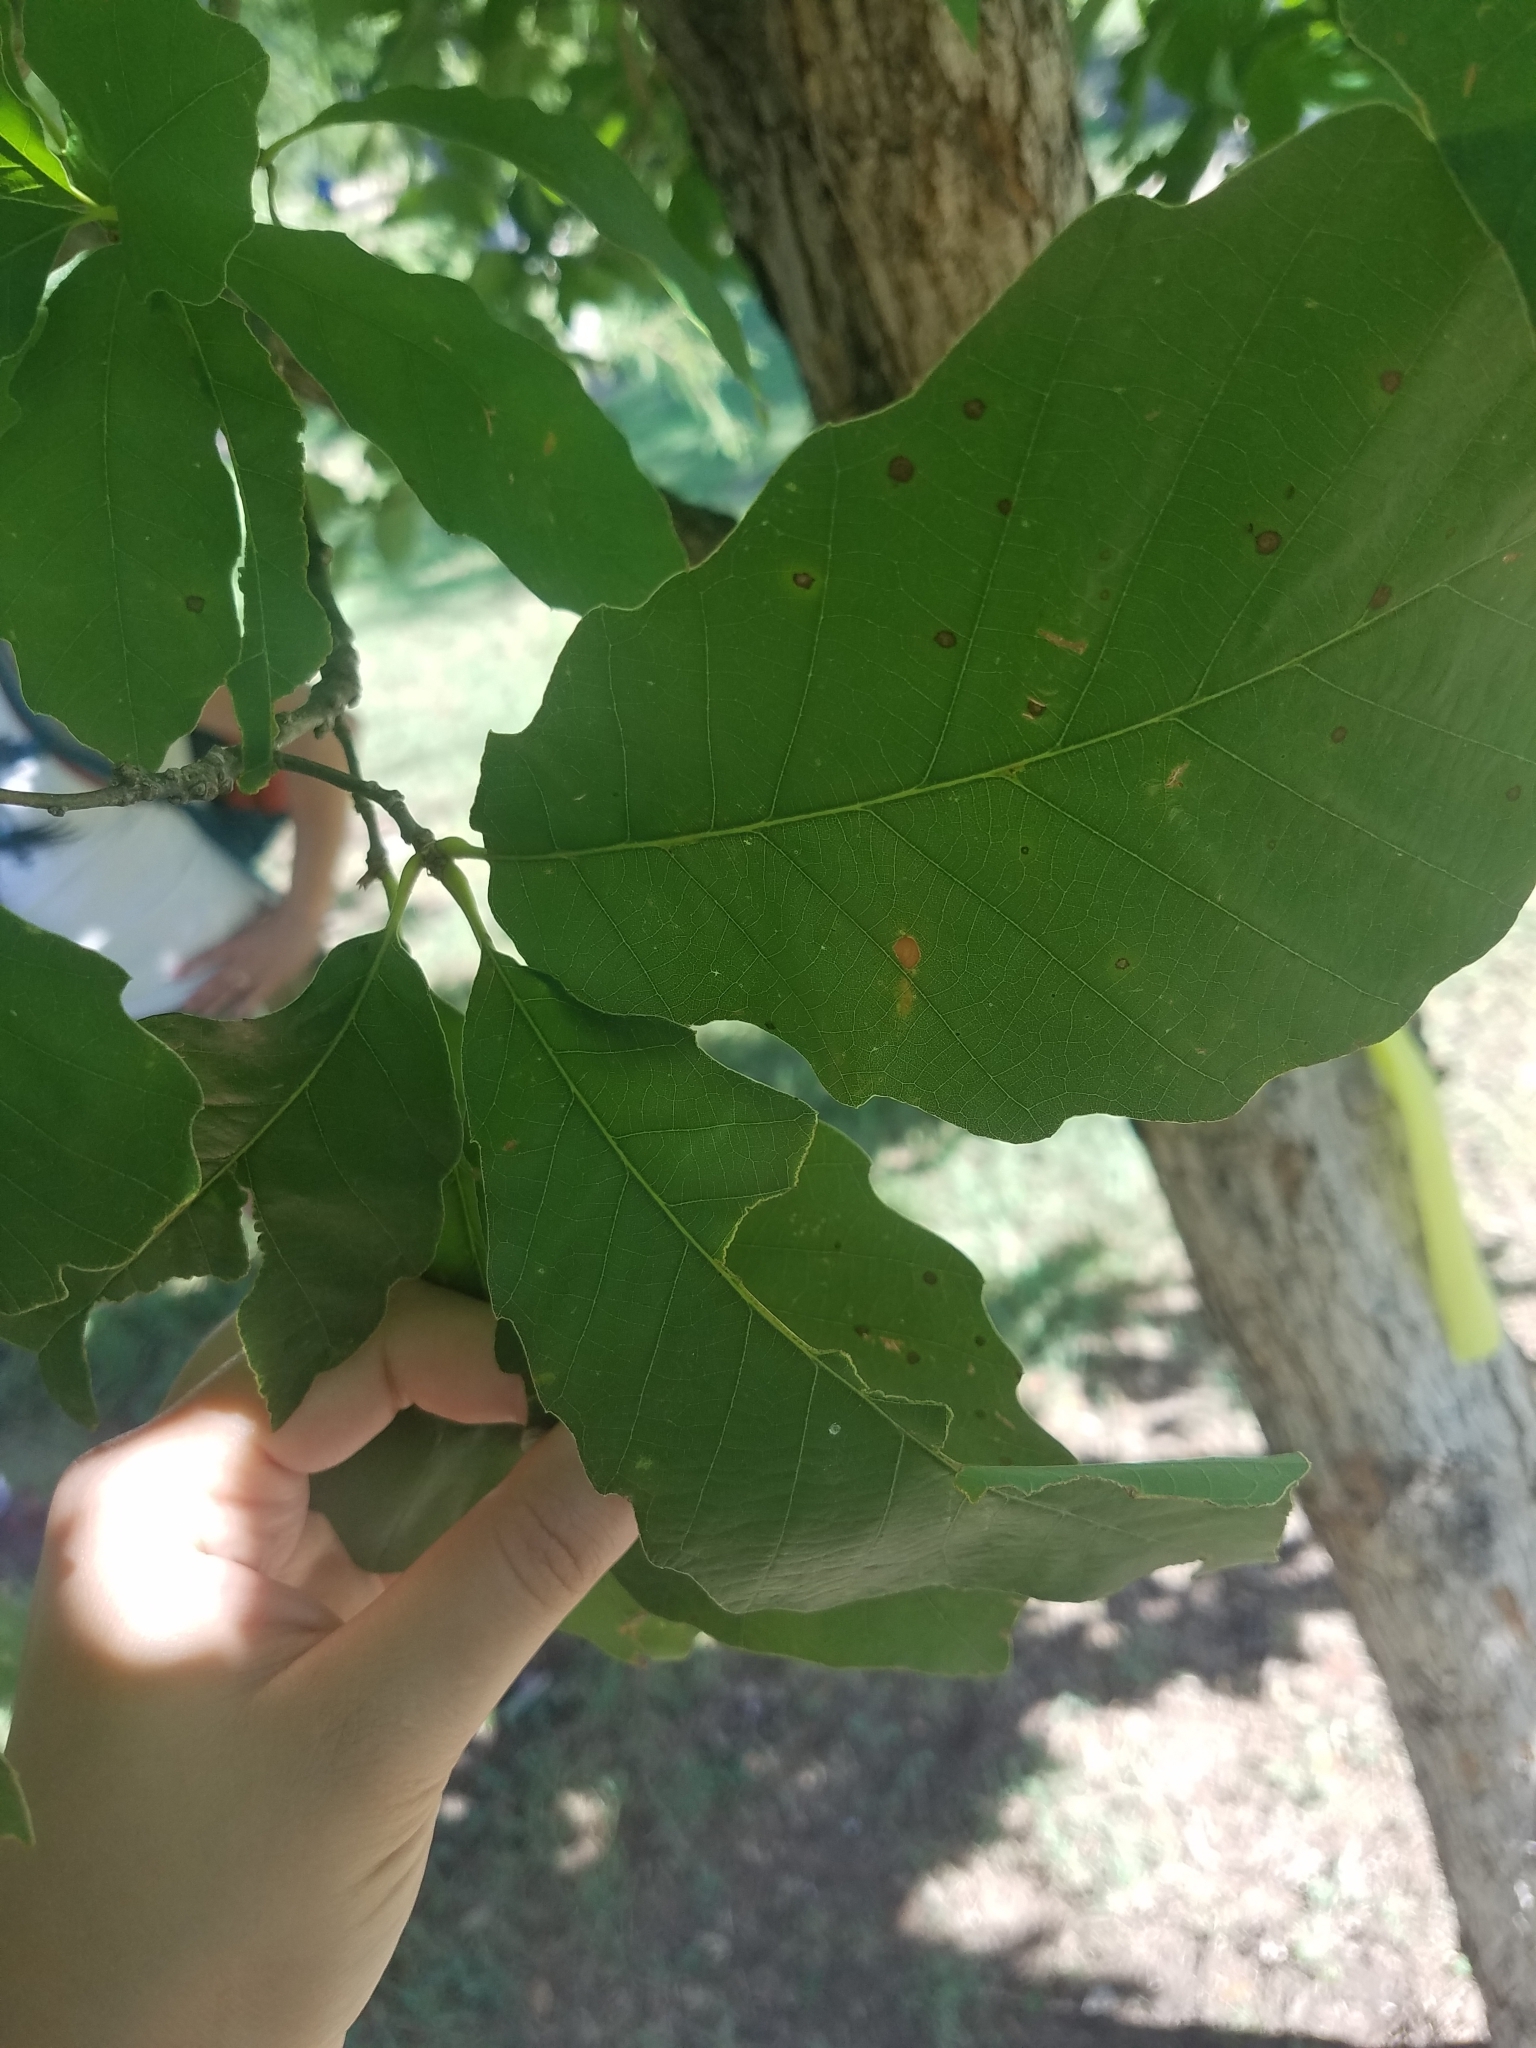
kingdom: Plantae
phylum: Tracheophyta
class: Magnoliopsida
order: Fagales
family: Fagaceae
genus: Quercus
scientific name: Quercus muehlenbergii
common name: Chinkapin oak
